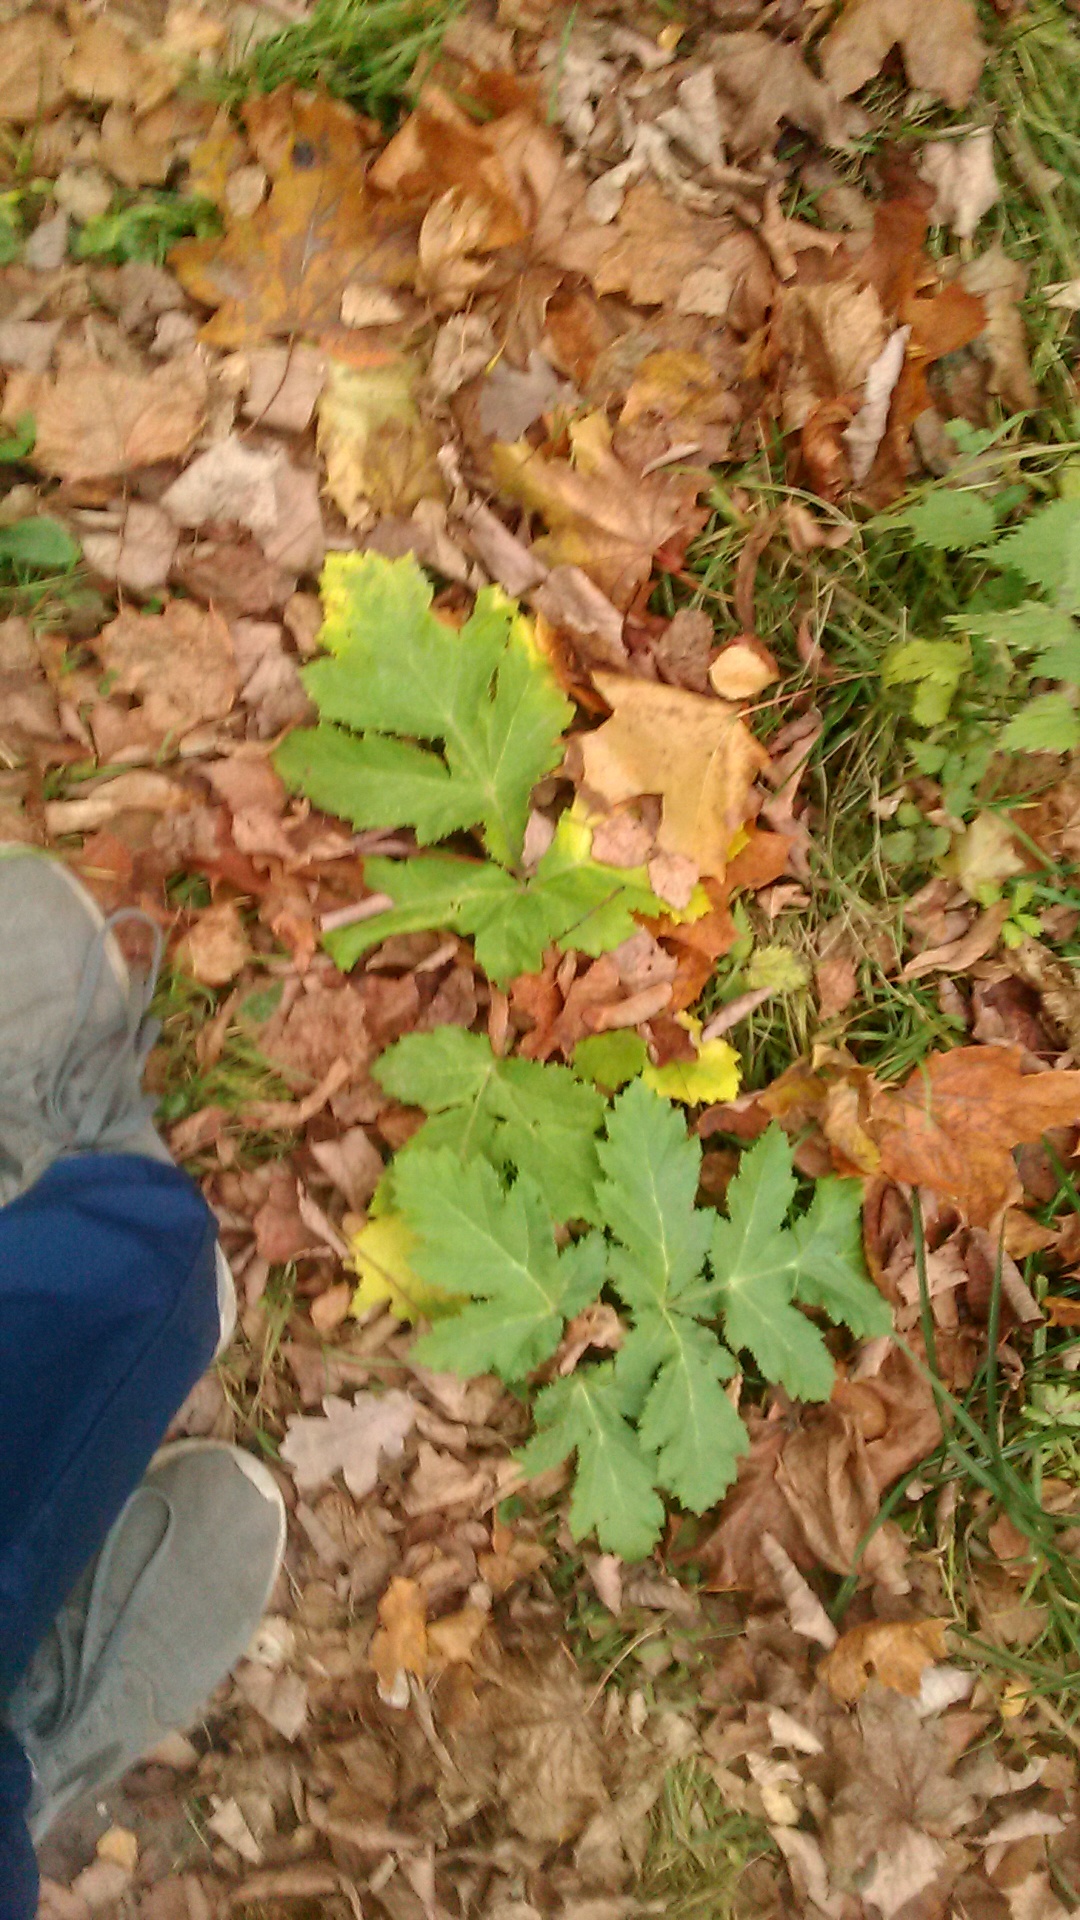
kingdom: Plantae
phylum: Tracheophyta
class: Magnoliopsida
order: Apiales
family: Apiaceae
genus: Heracleum
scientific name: Heracleum sosnowskyi
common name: Sosnowsky's hogweed
